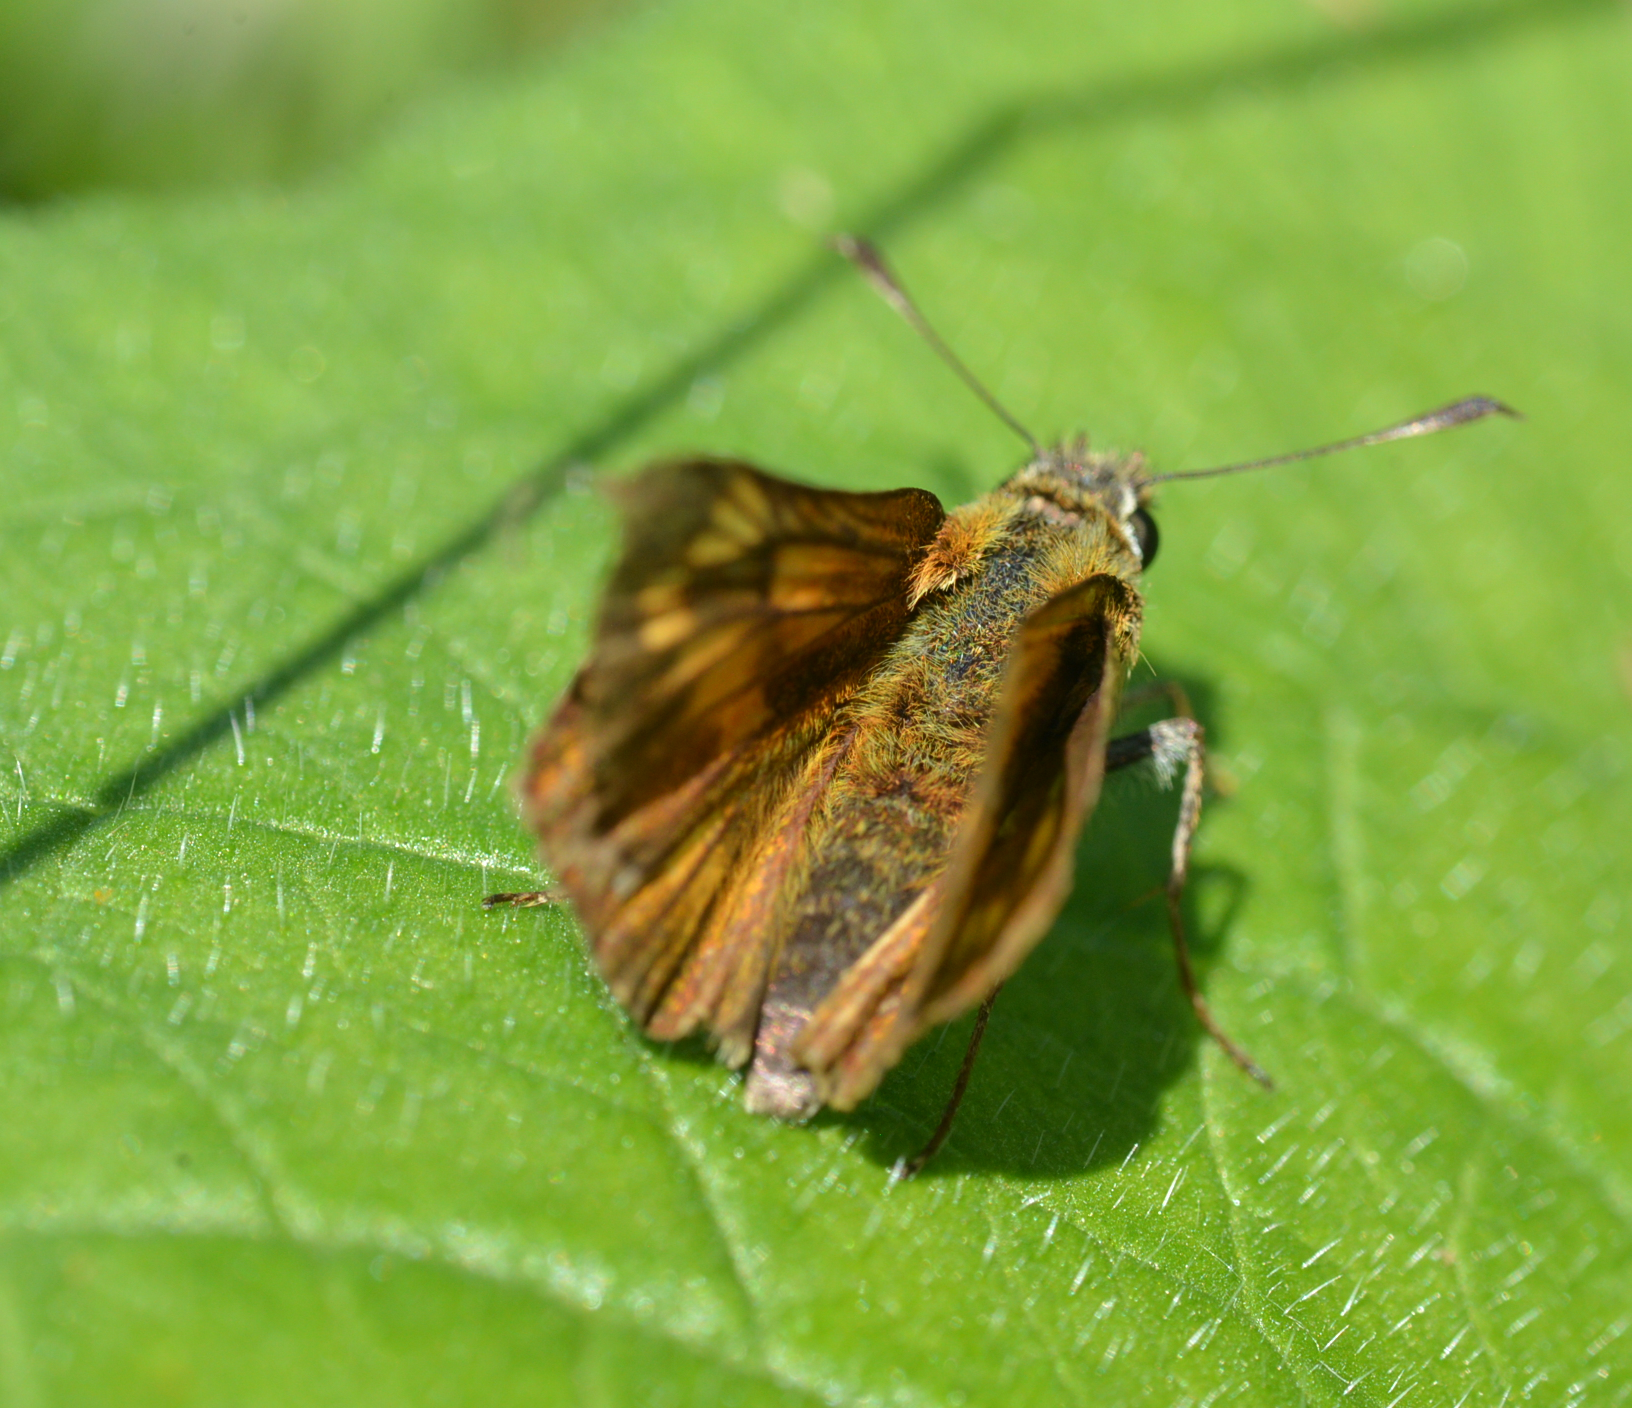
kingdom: Animalia
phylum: Arthropoda
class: Insecta
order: Lepidoptera
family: Hesperiidae
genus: Ochlodes
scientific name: Ochlodes venata
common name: Large skipper
